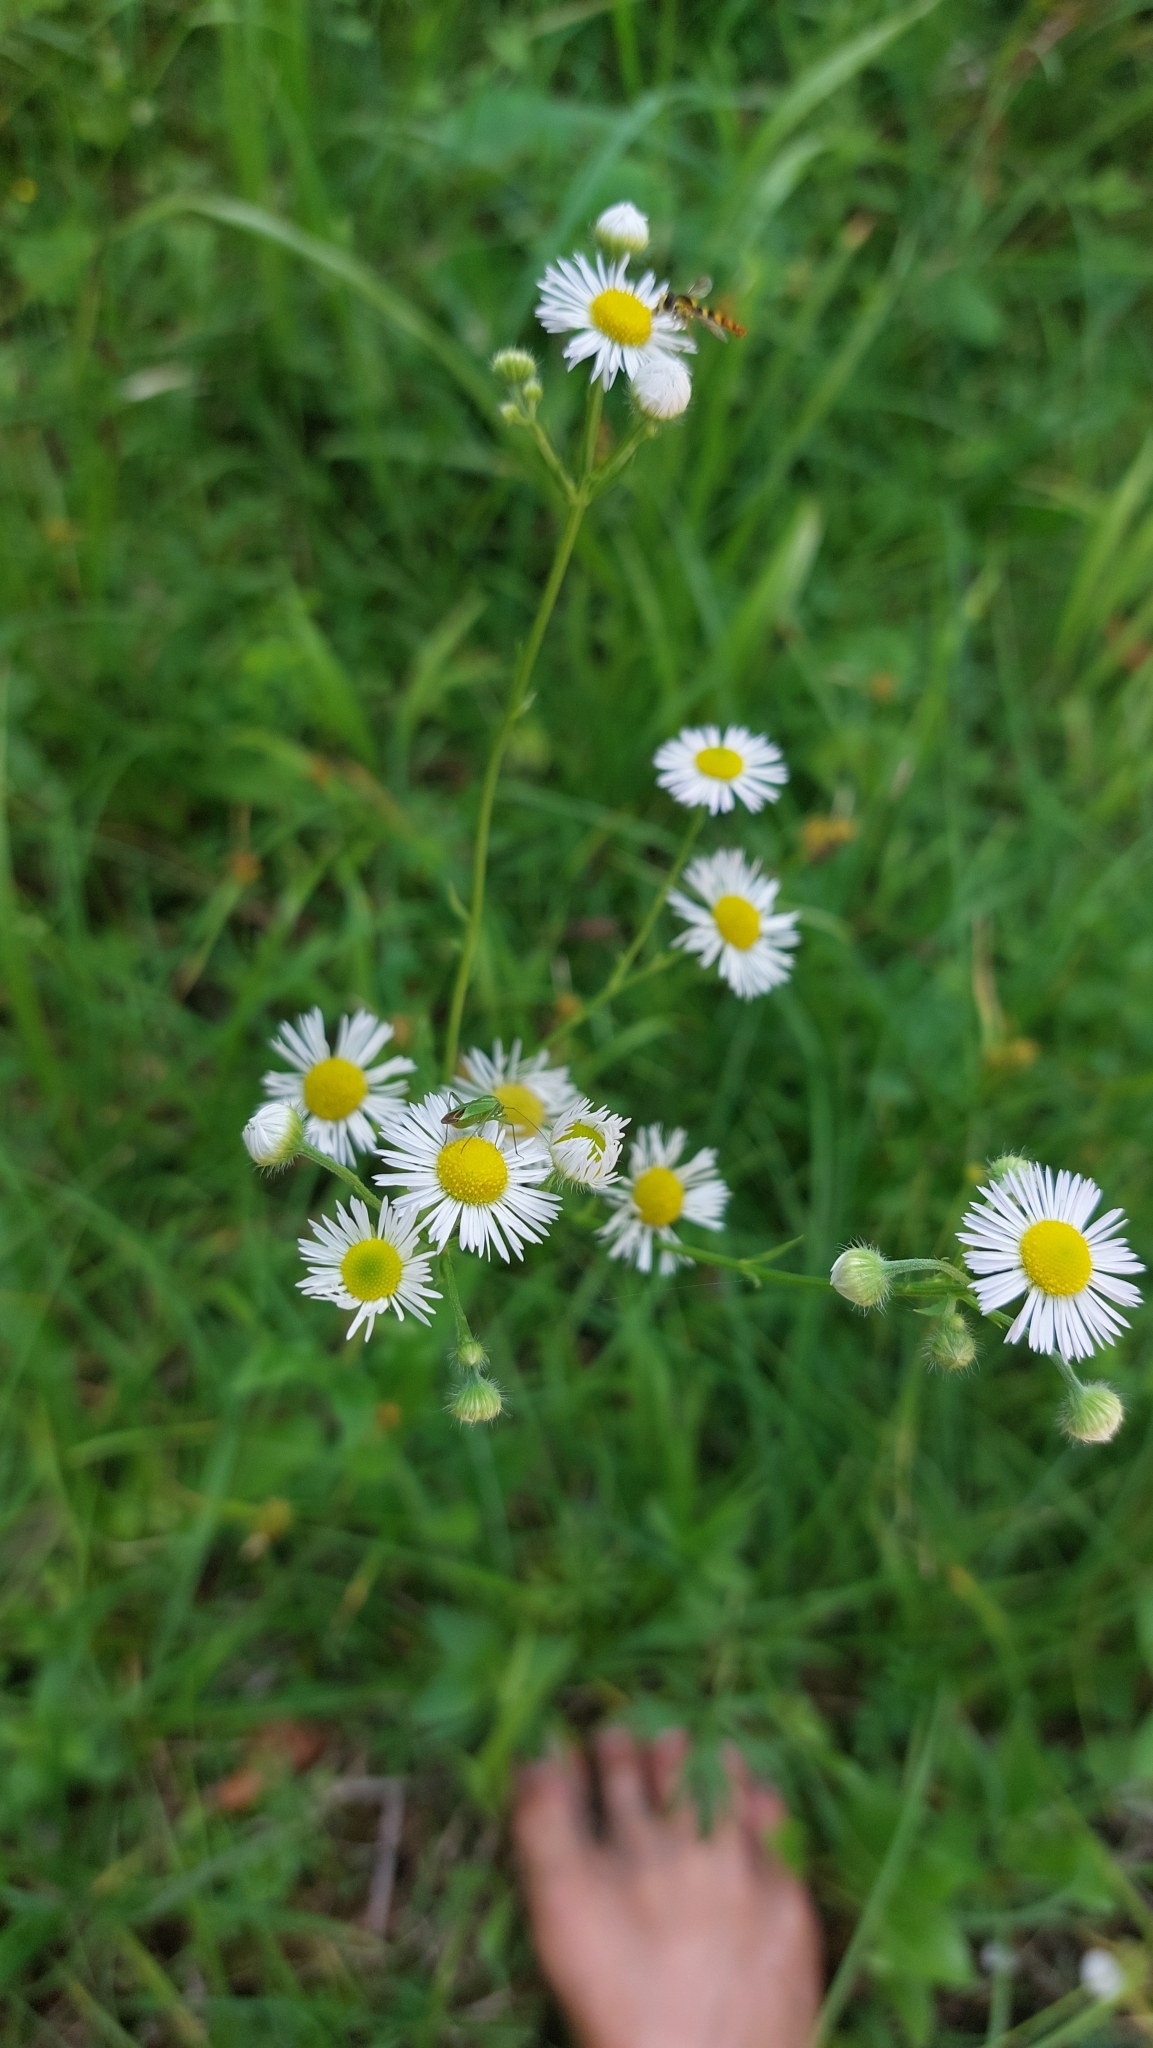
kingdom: Plantae
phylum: Tracheophyta
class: Magnoliopsida
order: Asterales
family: Asteraceae
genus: Erigeron
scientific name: Erigeron annuus
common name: Tall fleabane
